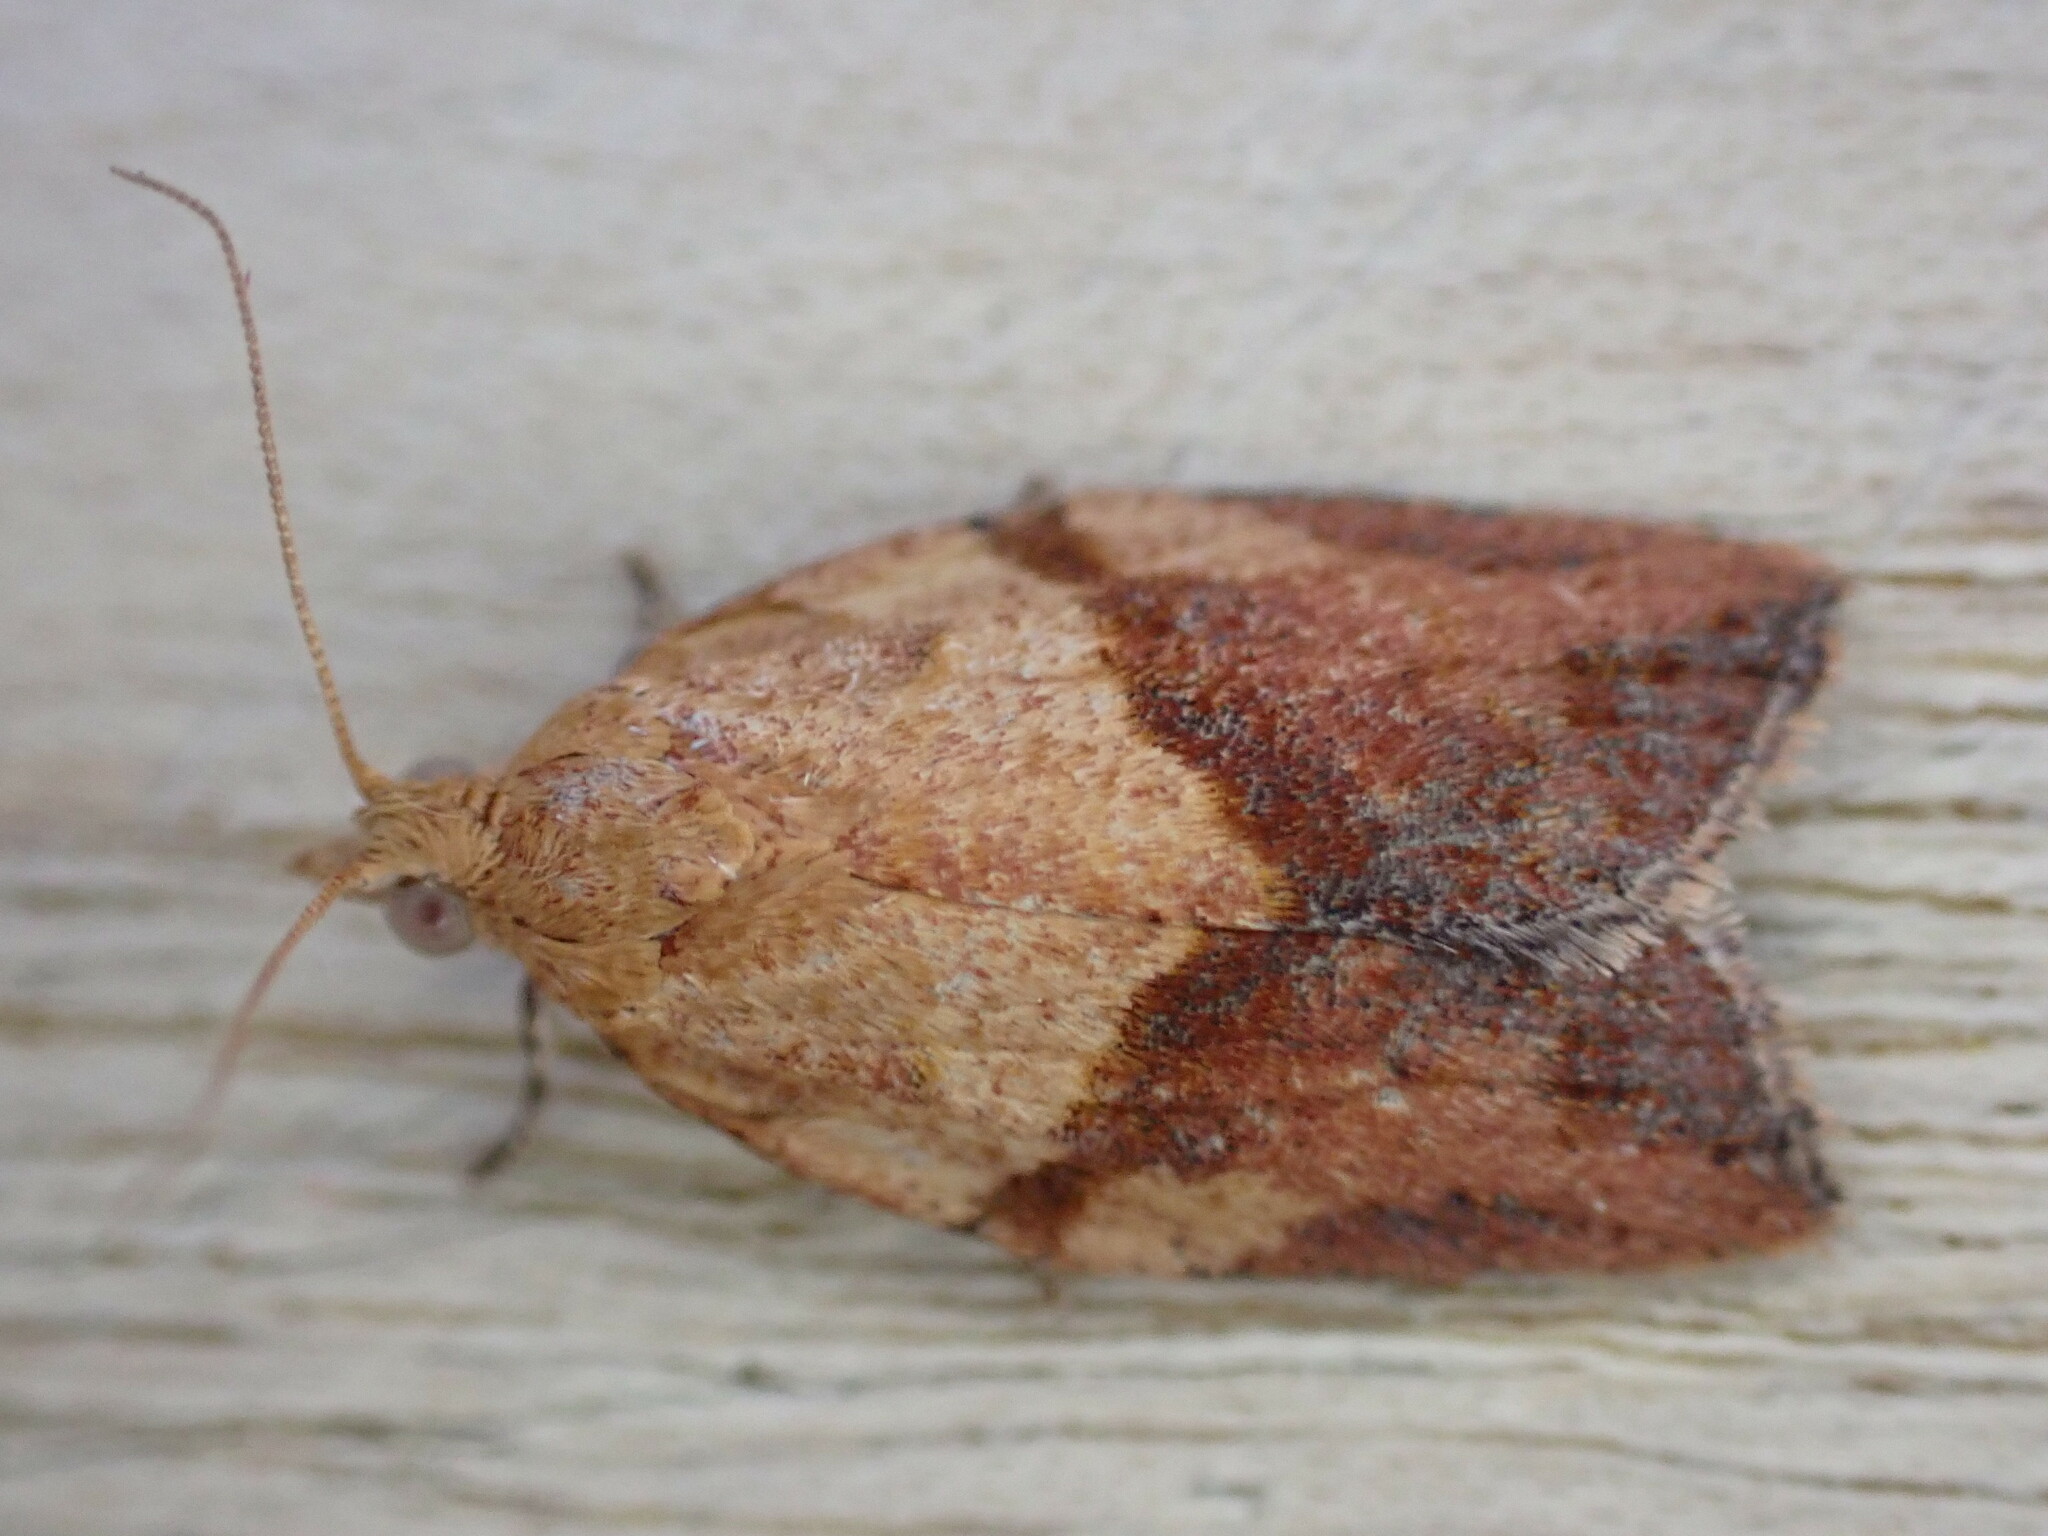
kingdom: Animalia
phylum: Arthropoda
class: Insecta
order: Lepidoptera
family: Tortricidae
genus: Epiphyas
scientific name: Epiphyas postvittana
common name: Light brown apple moth
